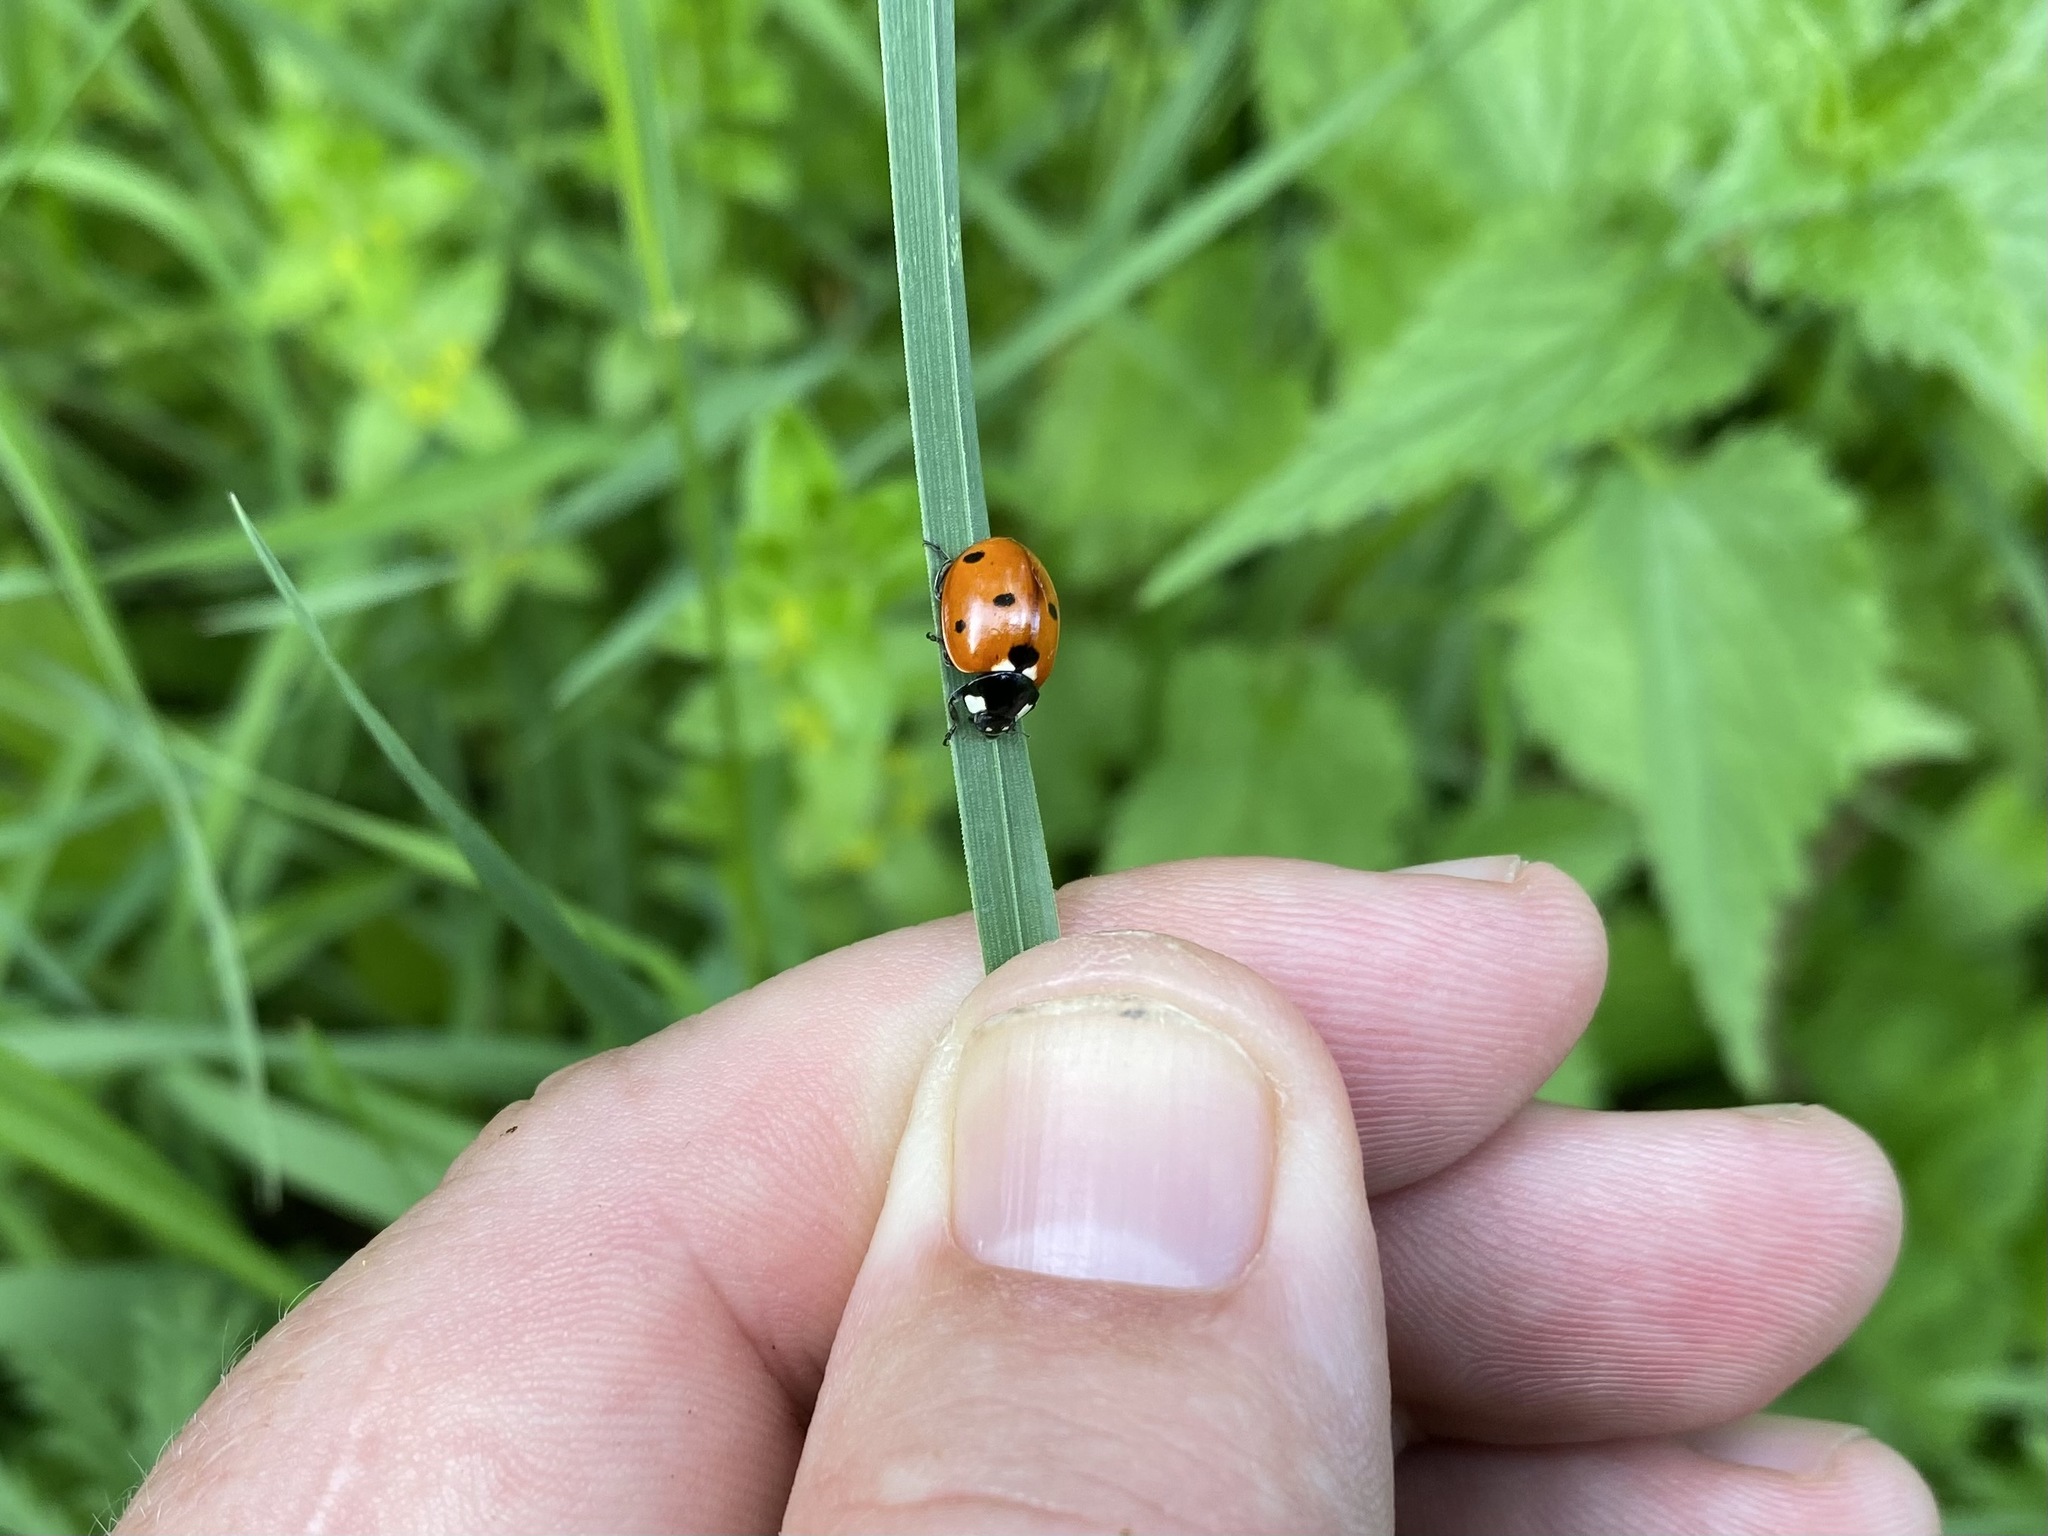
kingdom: Animalia
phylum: Arthropoda
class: Insecta
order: Coleoptera
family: Coccinellidae
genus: Coccinella
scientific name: Coccinella septempunctata
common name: Sevenspotted lady beetle
